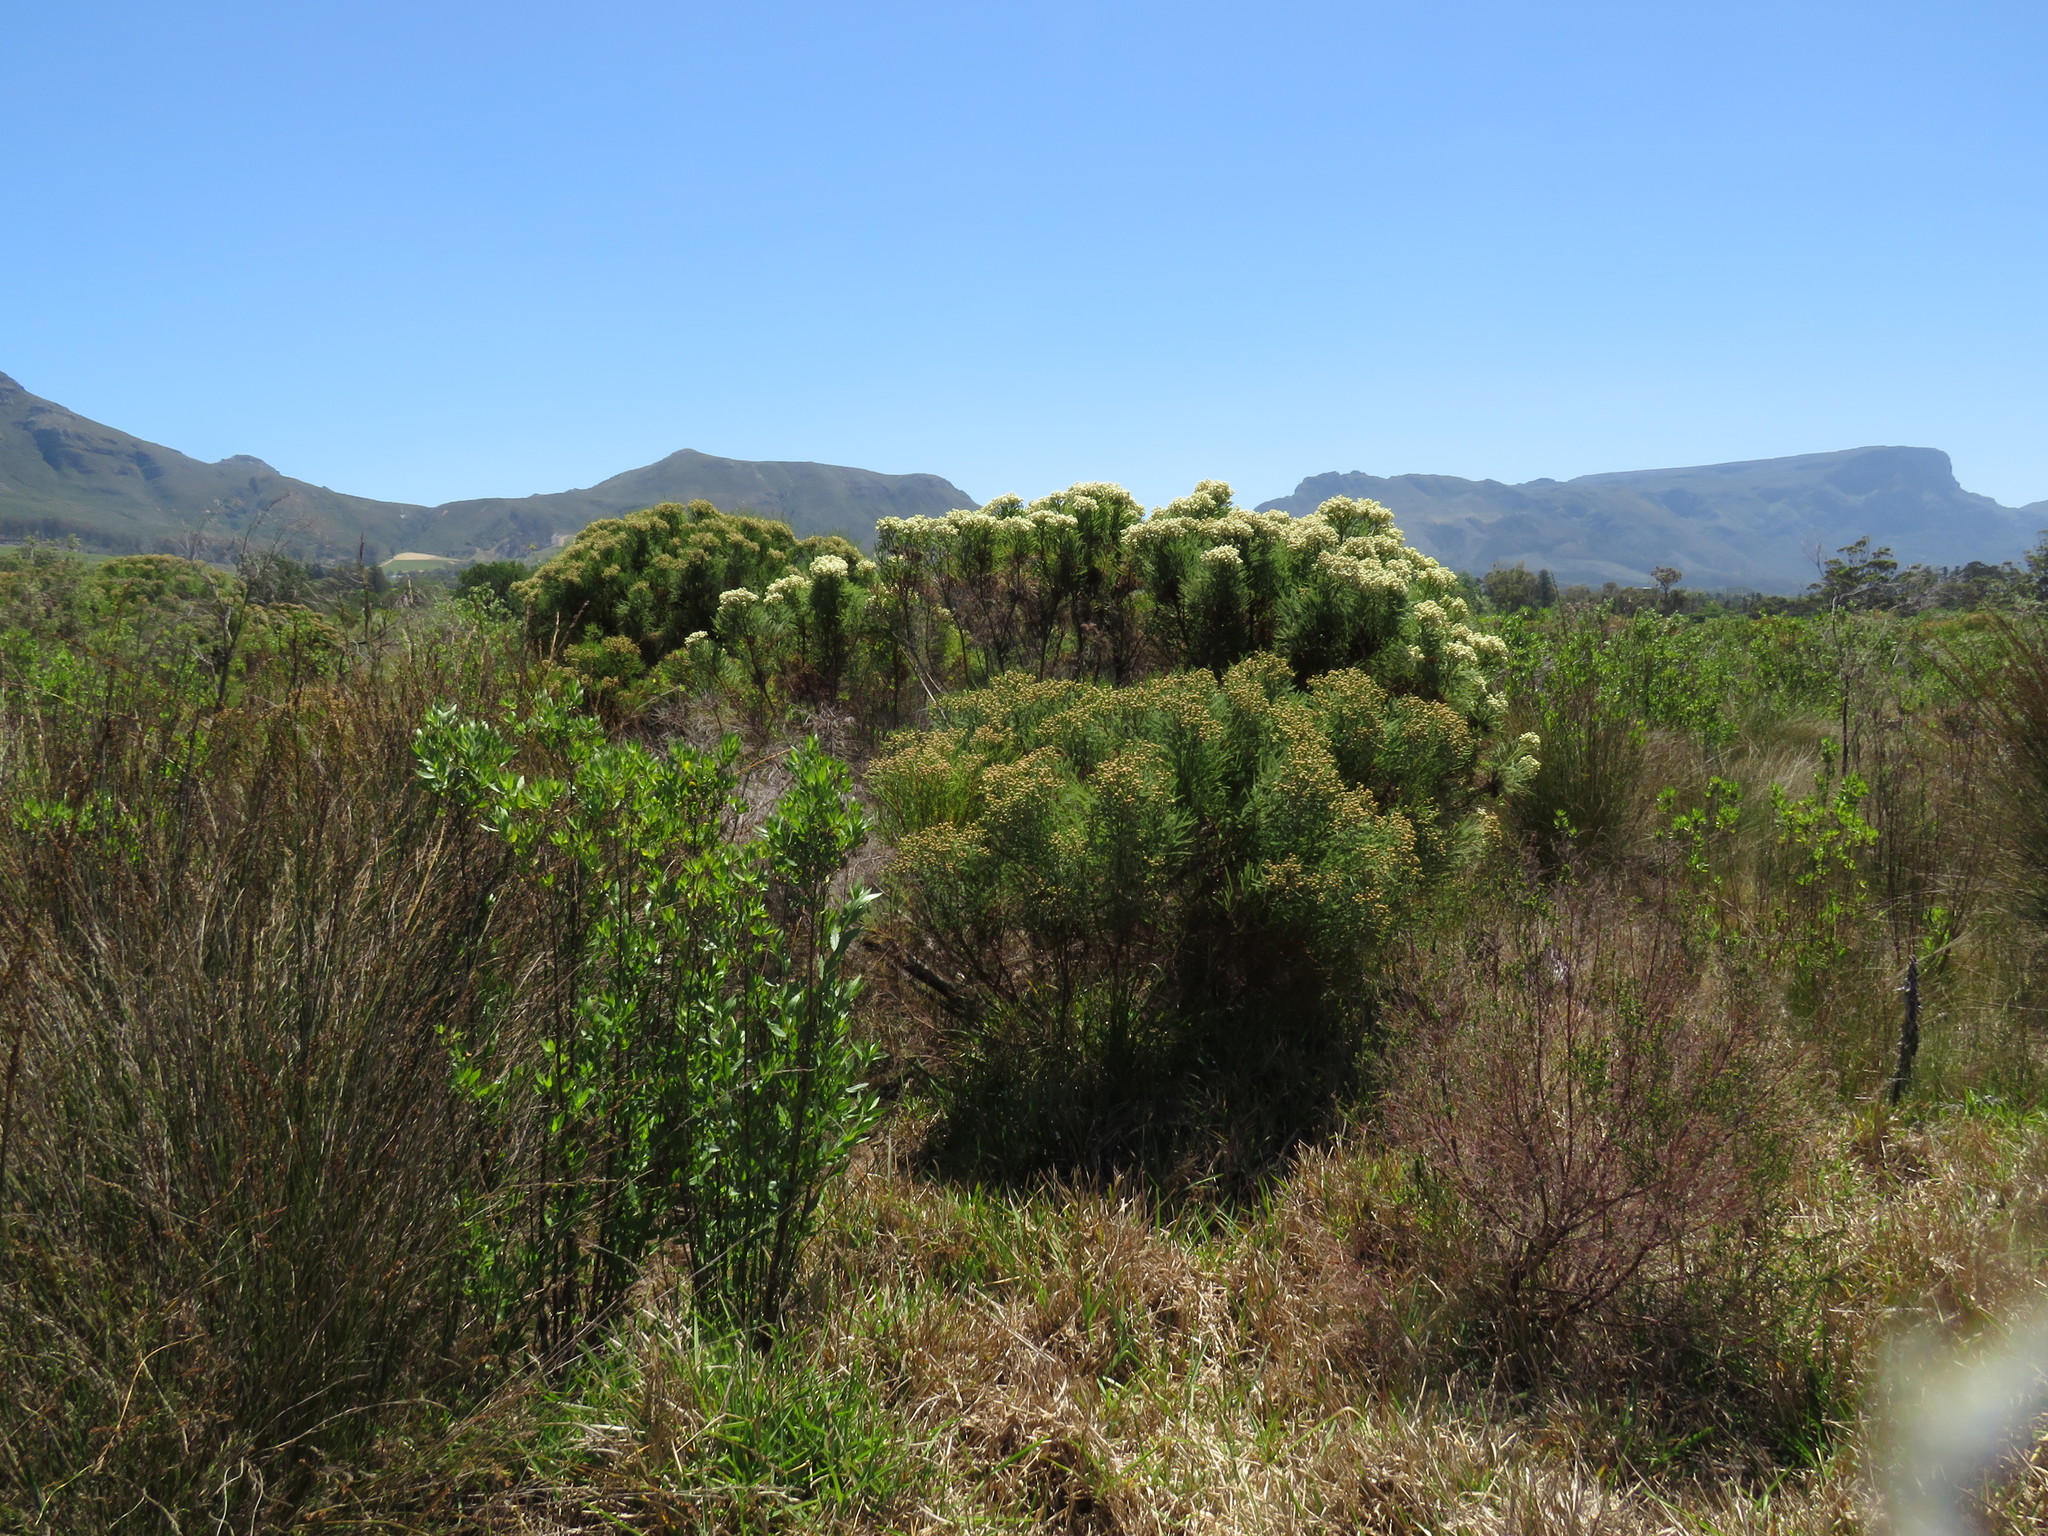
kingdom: Plantae
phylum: Tracheophyta
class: Magnoliopsida
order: Bruniales
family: Bruniaceae
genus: Berzelia
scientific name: Berzelia lanuginosa
